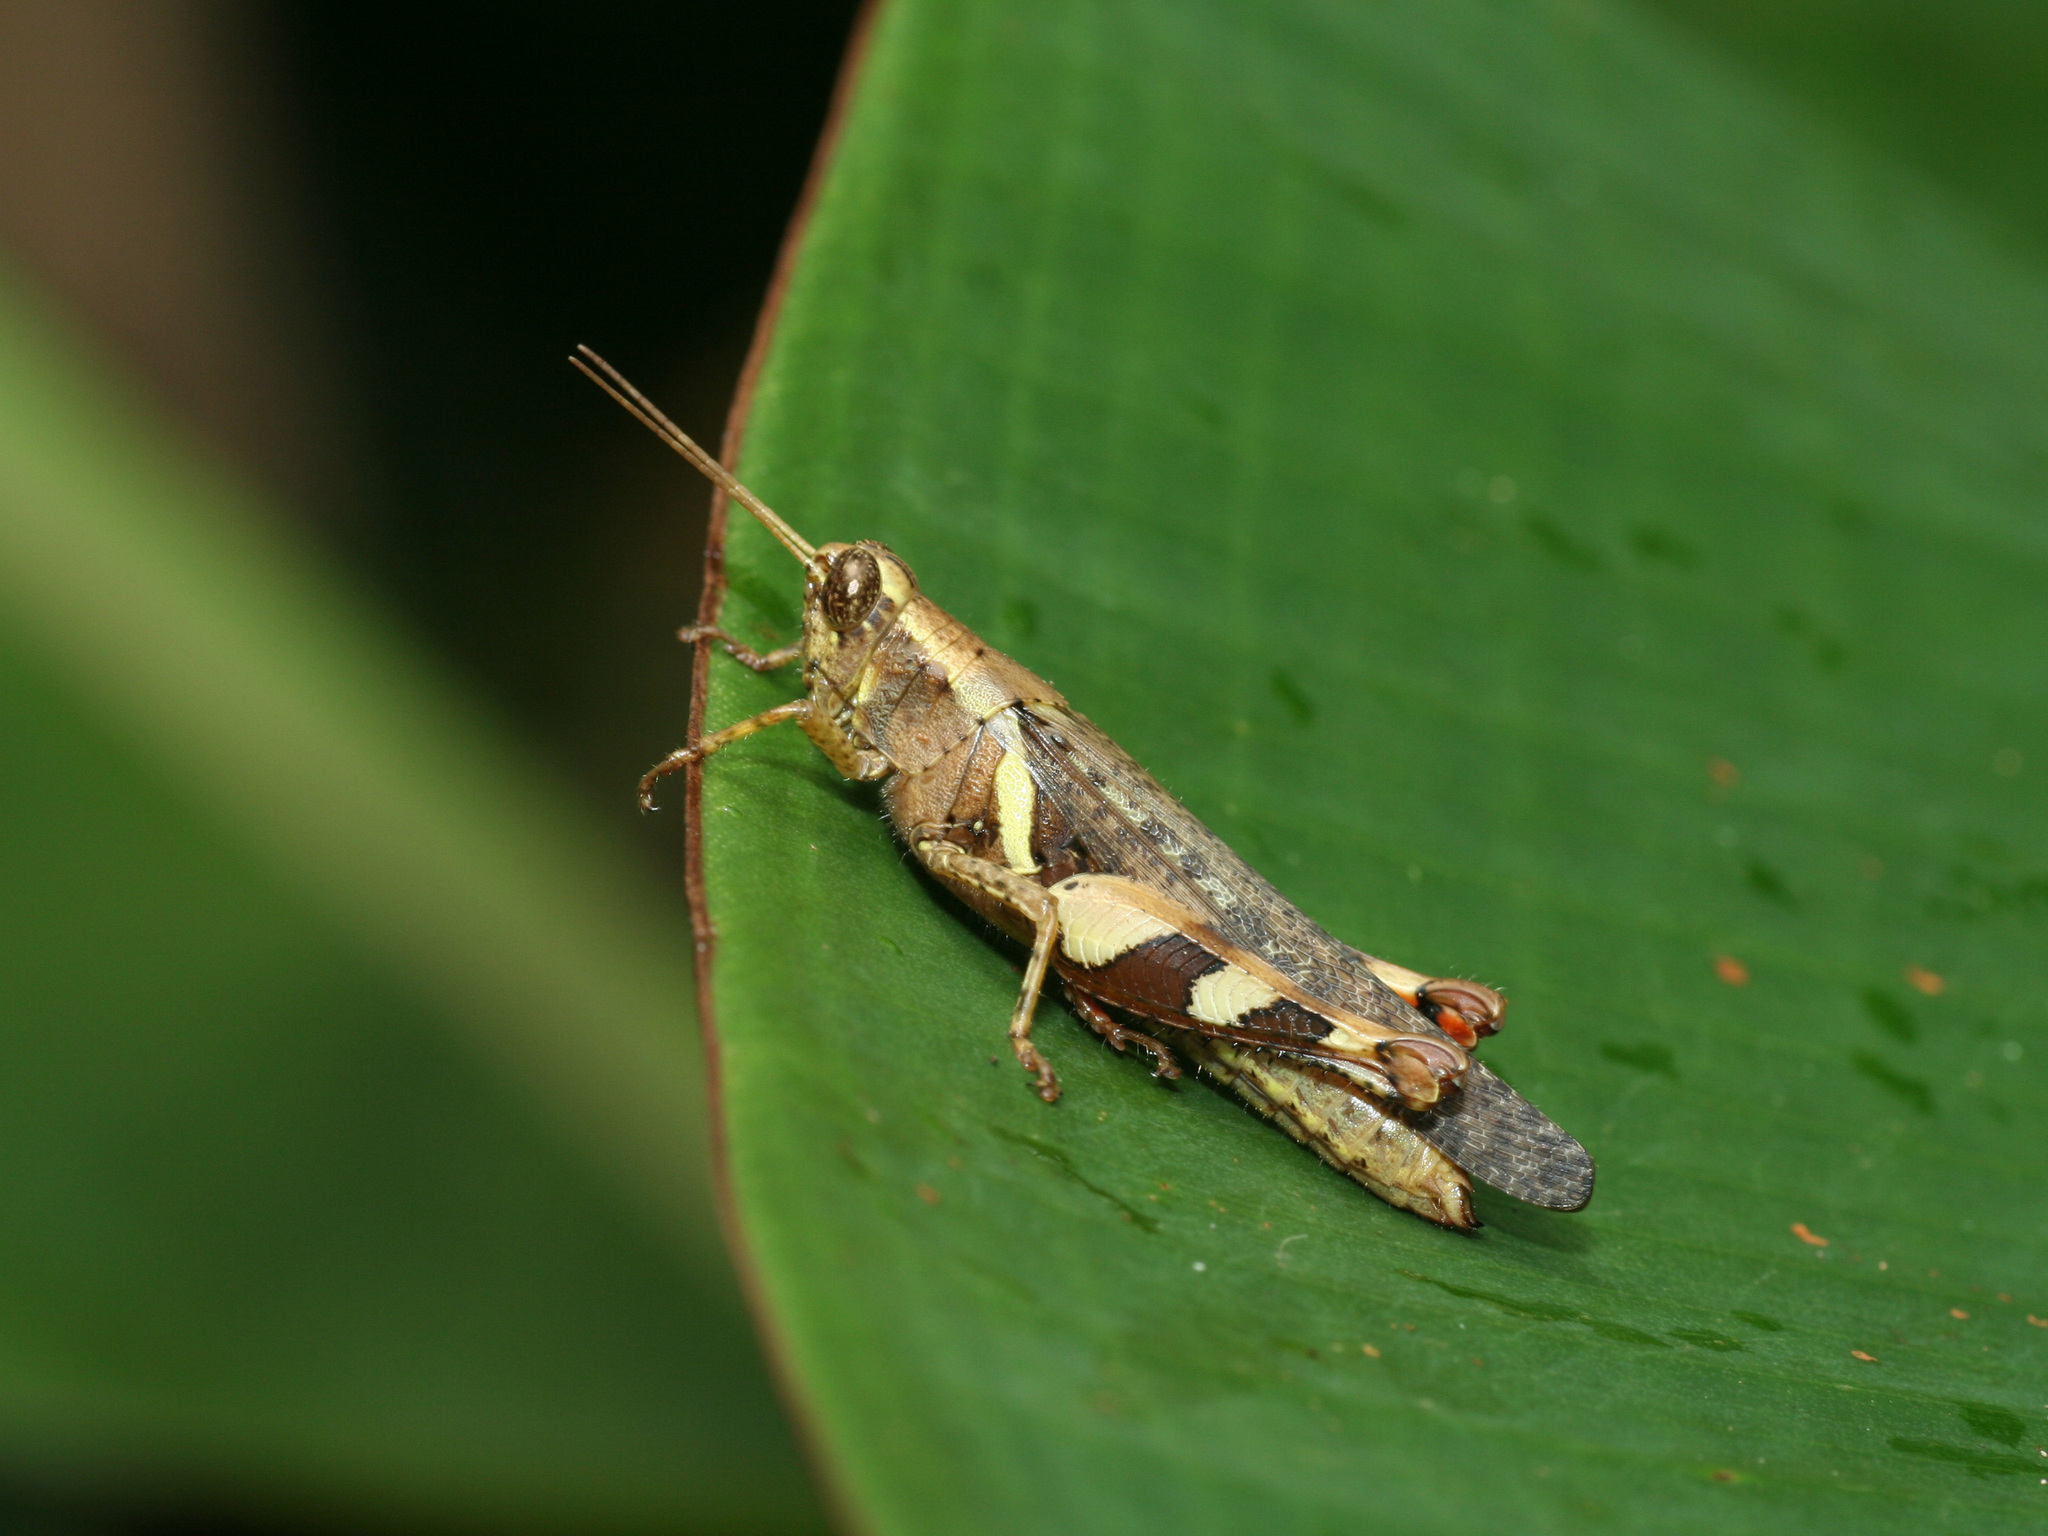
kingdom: Animalia
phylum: Arthropoda
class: Insecta
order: Orthoptera
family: Acrididae
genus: Xenocatantops
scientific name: Xenocatantops humile
